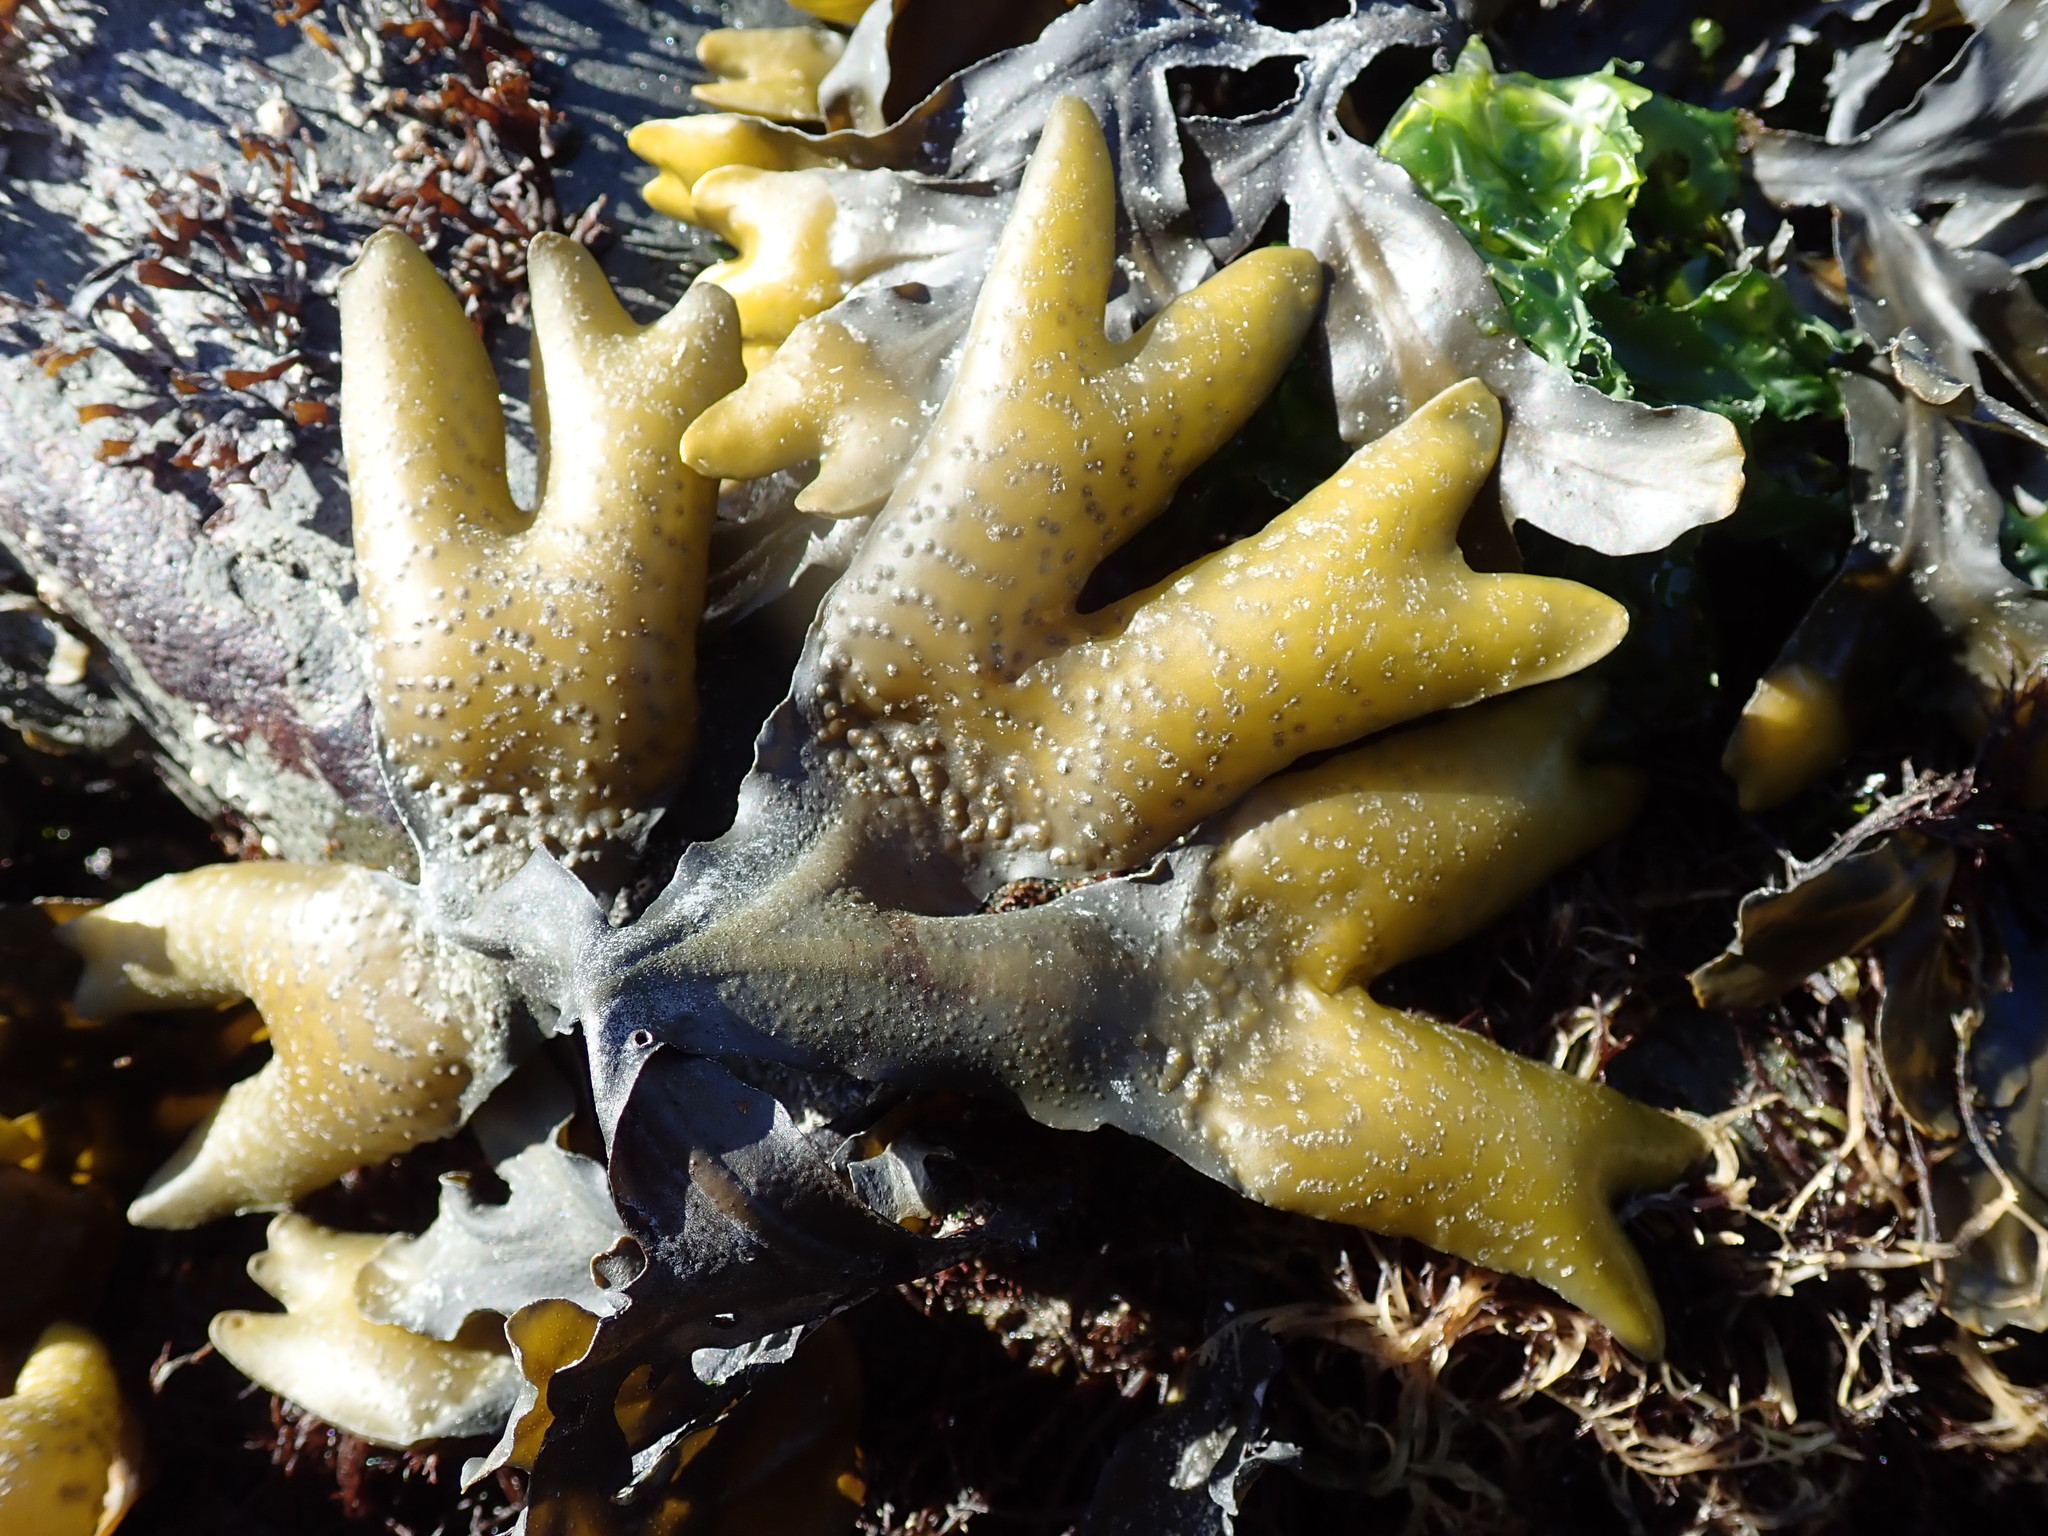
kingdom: Chromista
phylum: Ochrophyta
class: Phaeophyceae
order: Fucales
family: Fucaceae
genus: Fucus
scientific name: Fucus distichus
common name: Rockweed
